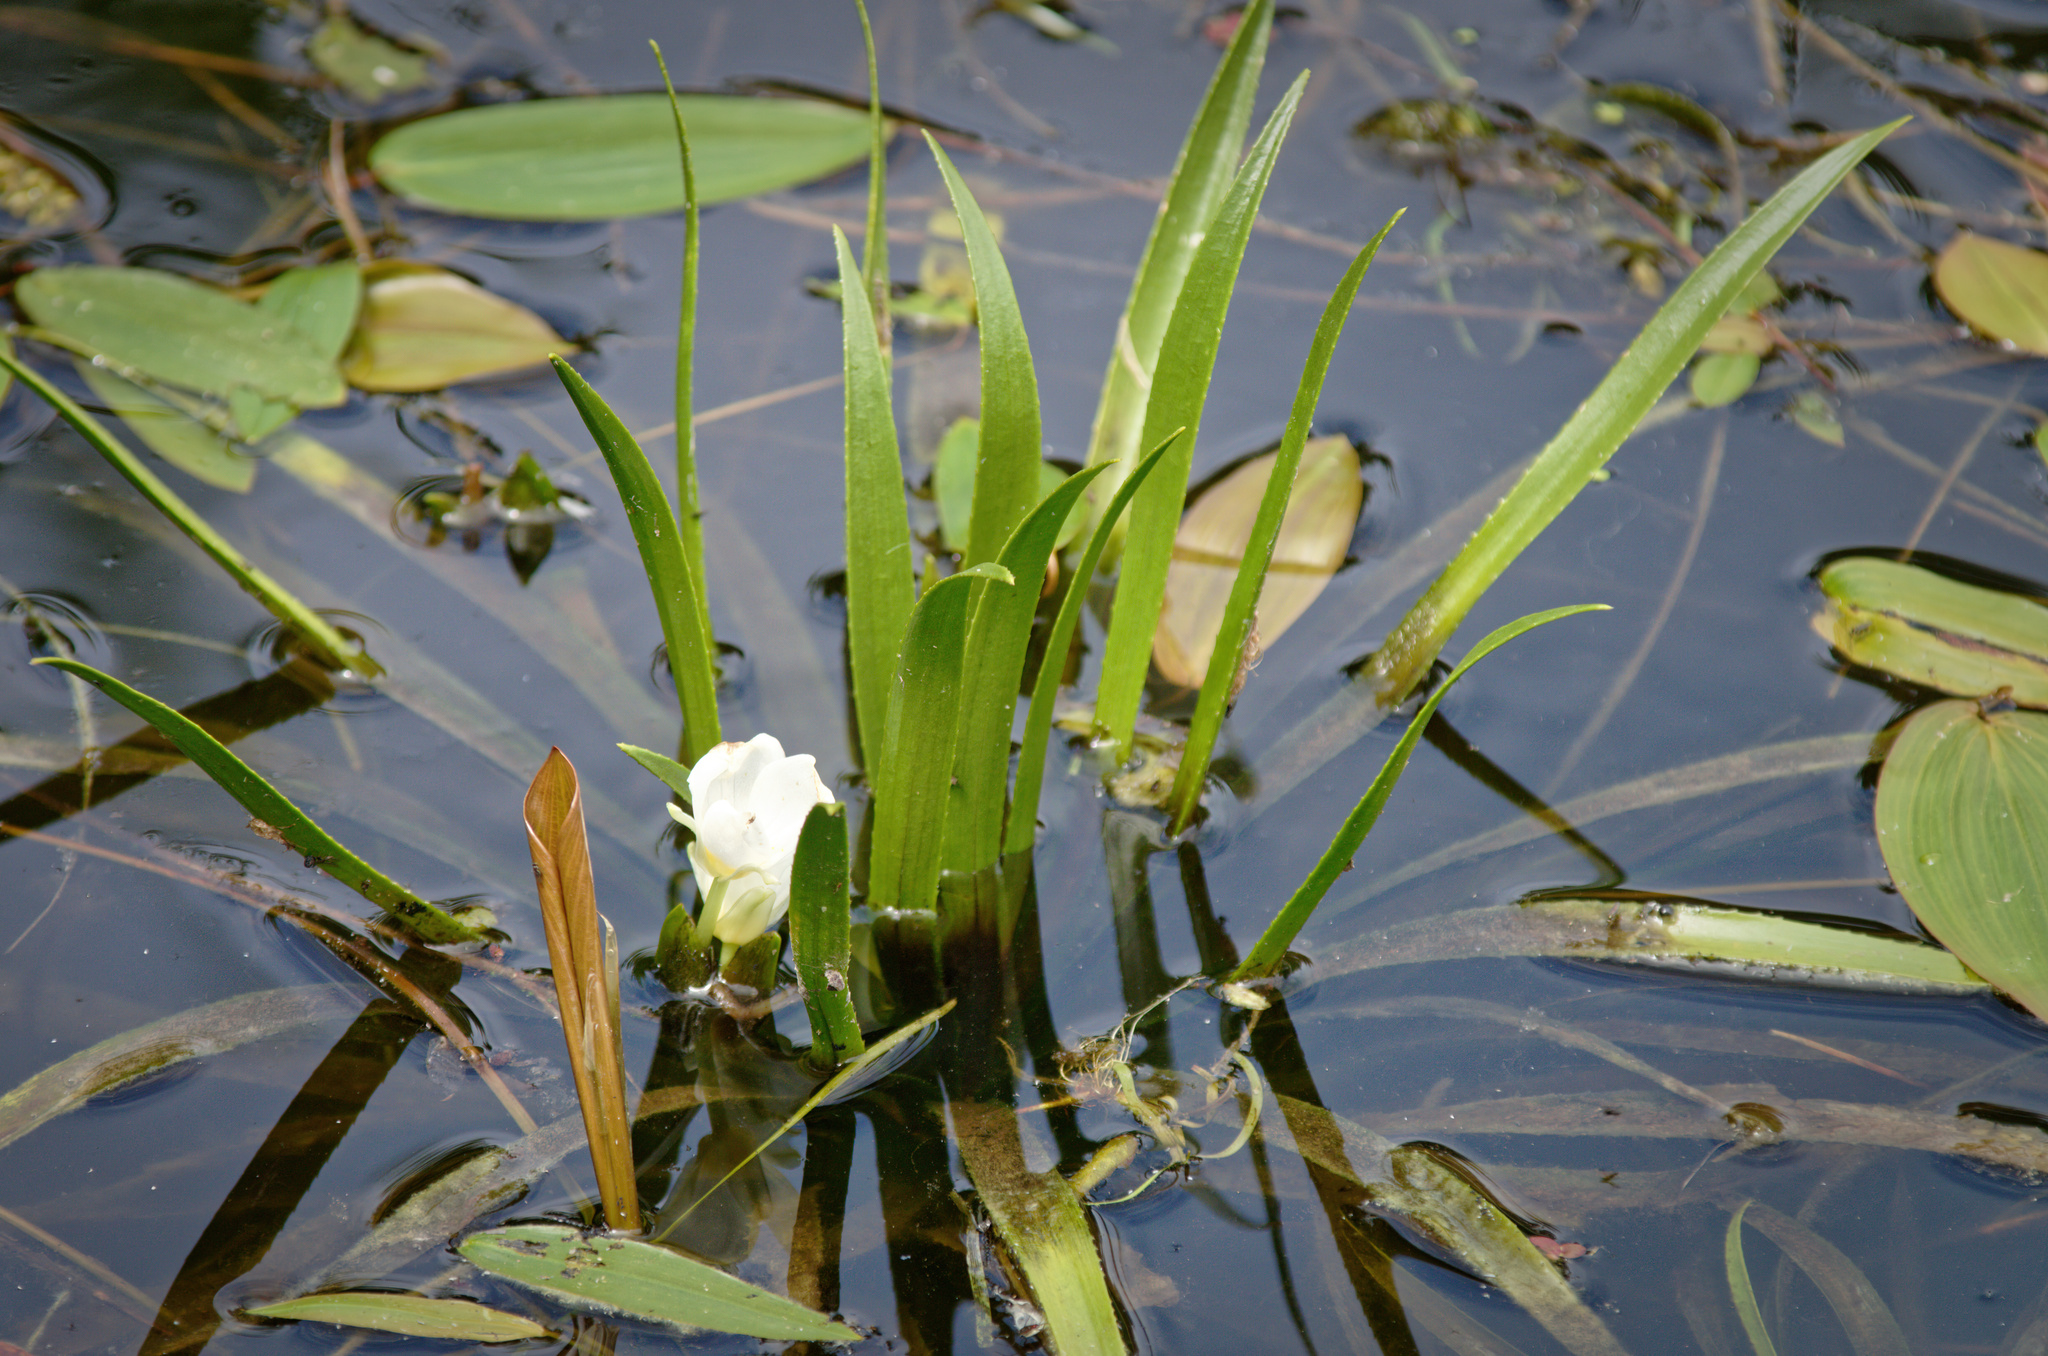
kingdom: Plantae
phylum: Tracheophyta
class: Liliopsida
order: Alismatales
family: Hydrocharitaceae
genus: Stratiotes
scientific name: Stratiotes aloides
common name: Water-soldier
